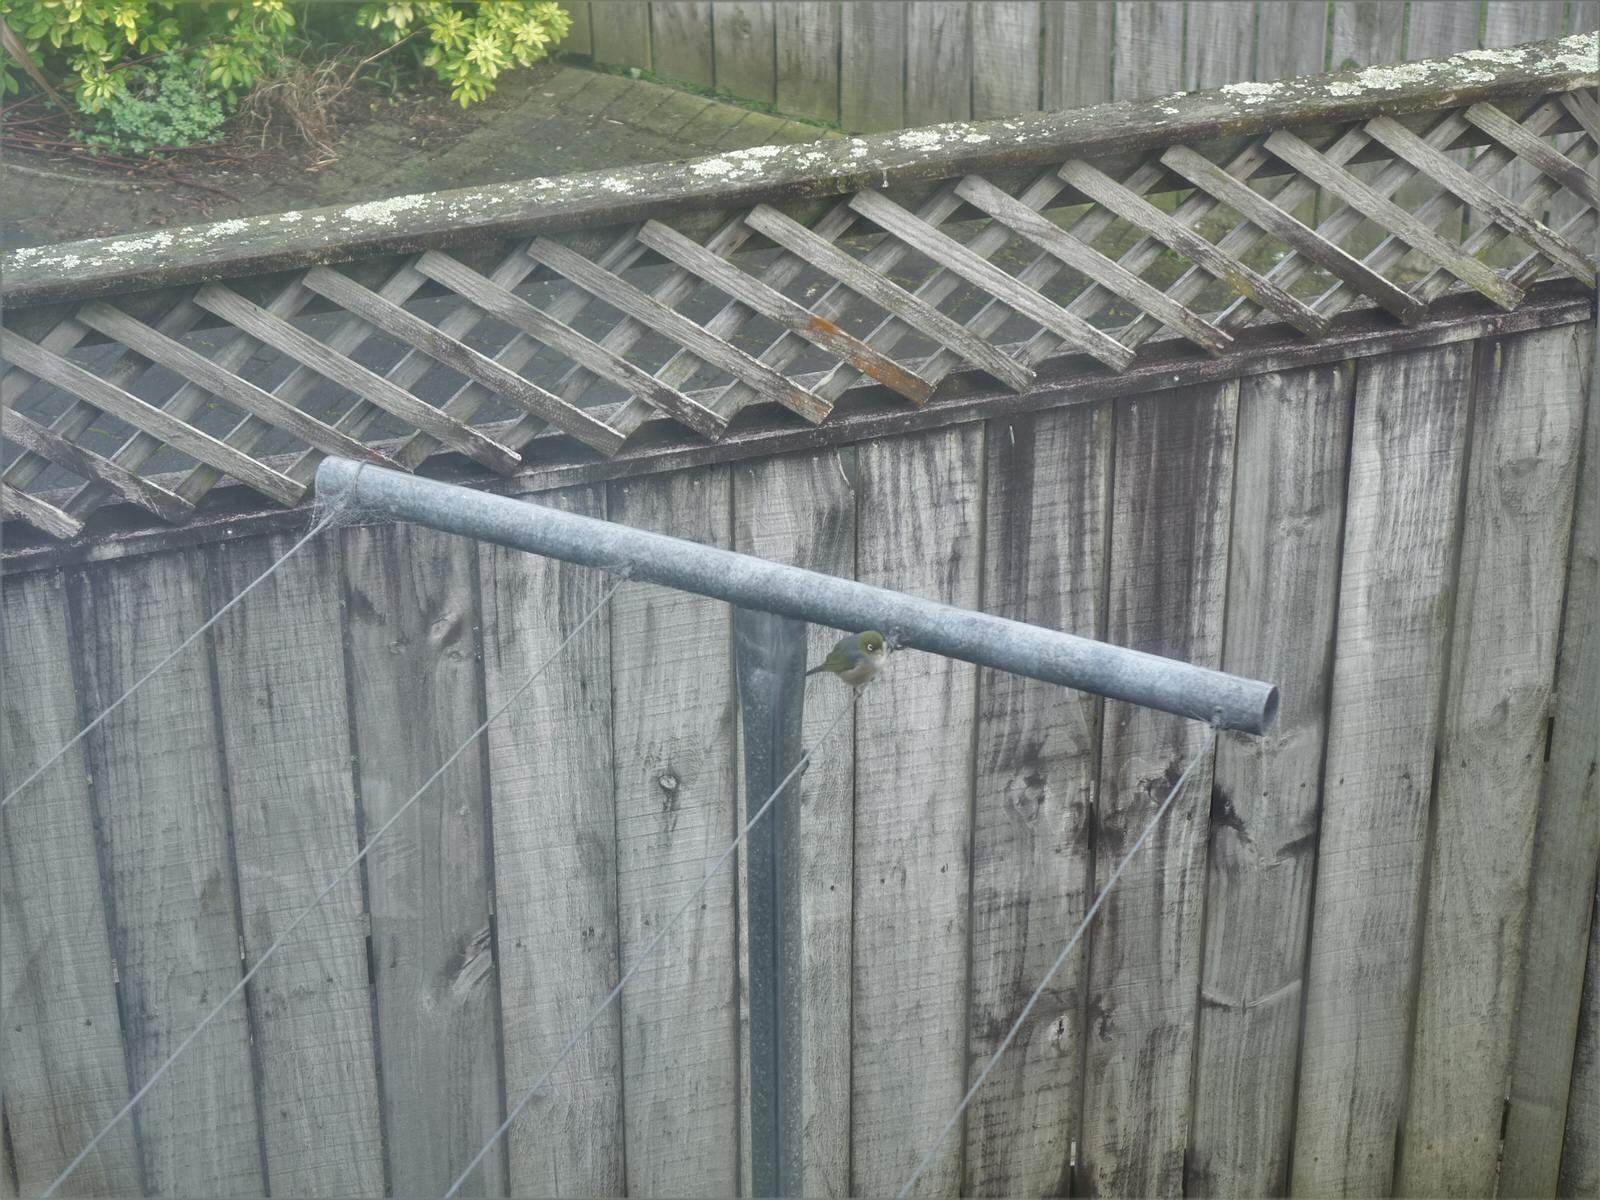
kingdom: Animalia
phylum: Chordata
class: Aves
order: Passeriformes
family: Zosteropidae
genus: Zosterops
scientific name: Zosterops lateralis
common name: Silvereye
